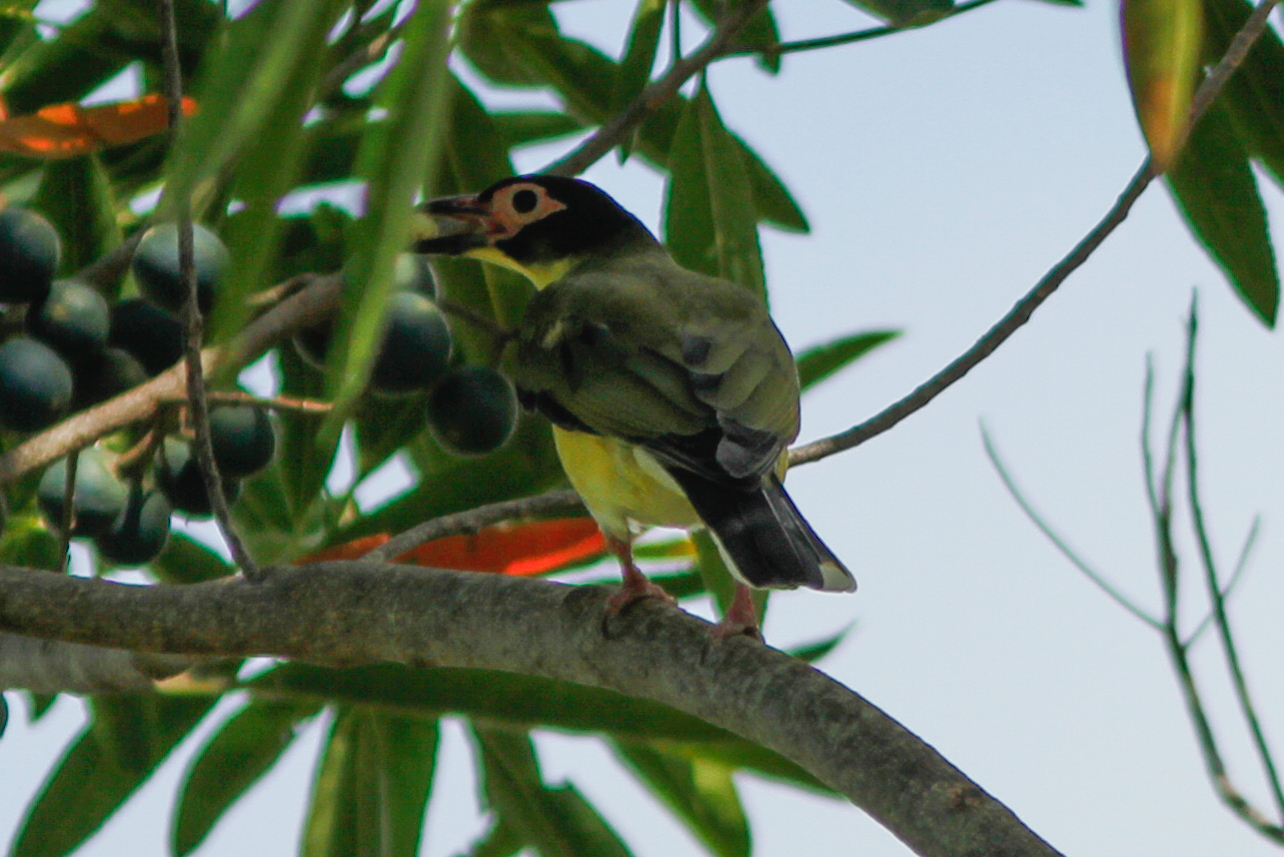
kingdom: Animalia
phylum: Chordata
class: Aves
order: Passeriformes
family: Oriolidae
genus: Sphecotheres
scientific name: Sphecotheres vieilloti
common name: Australasian figbird
